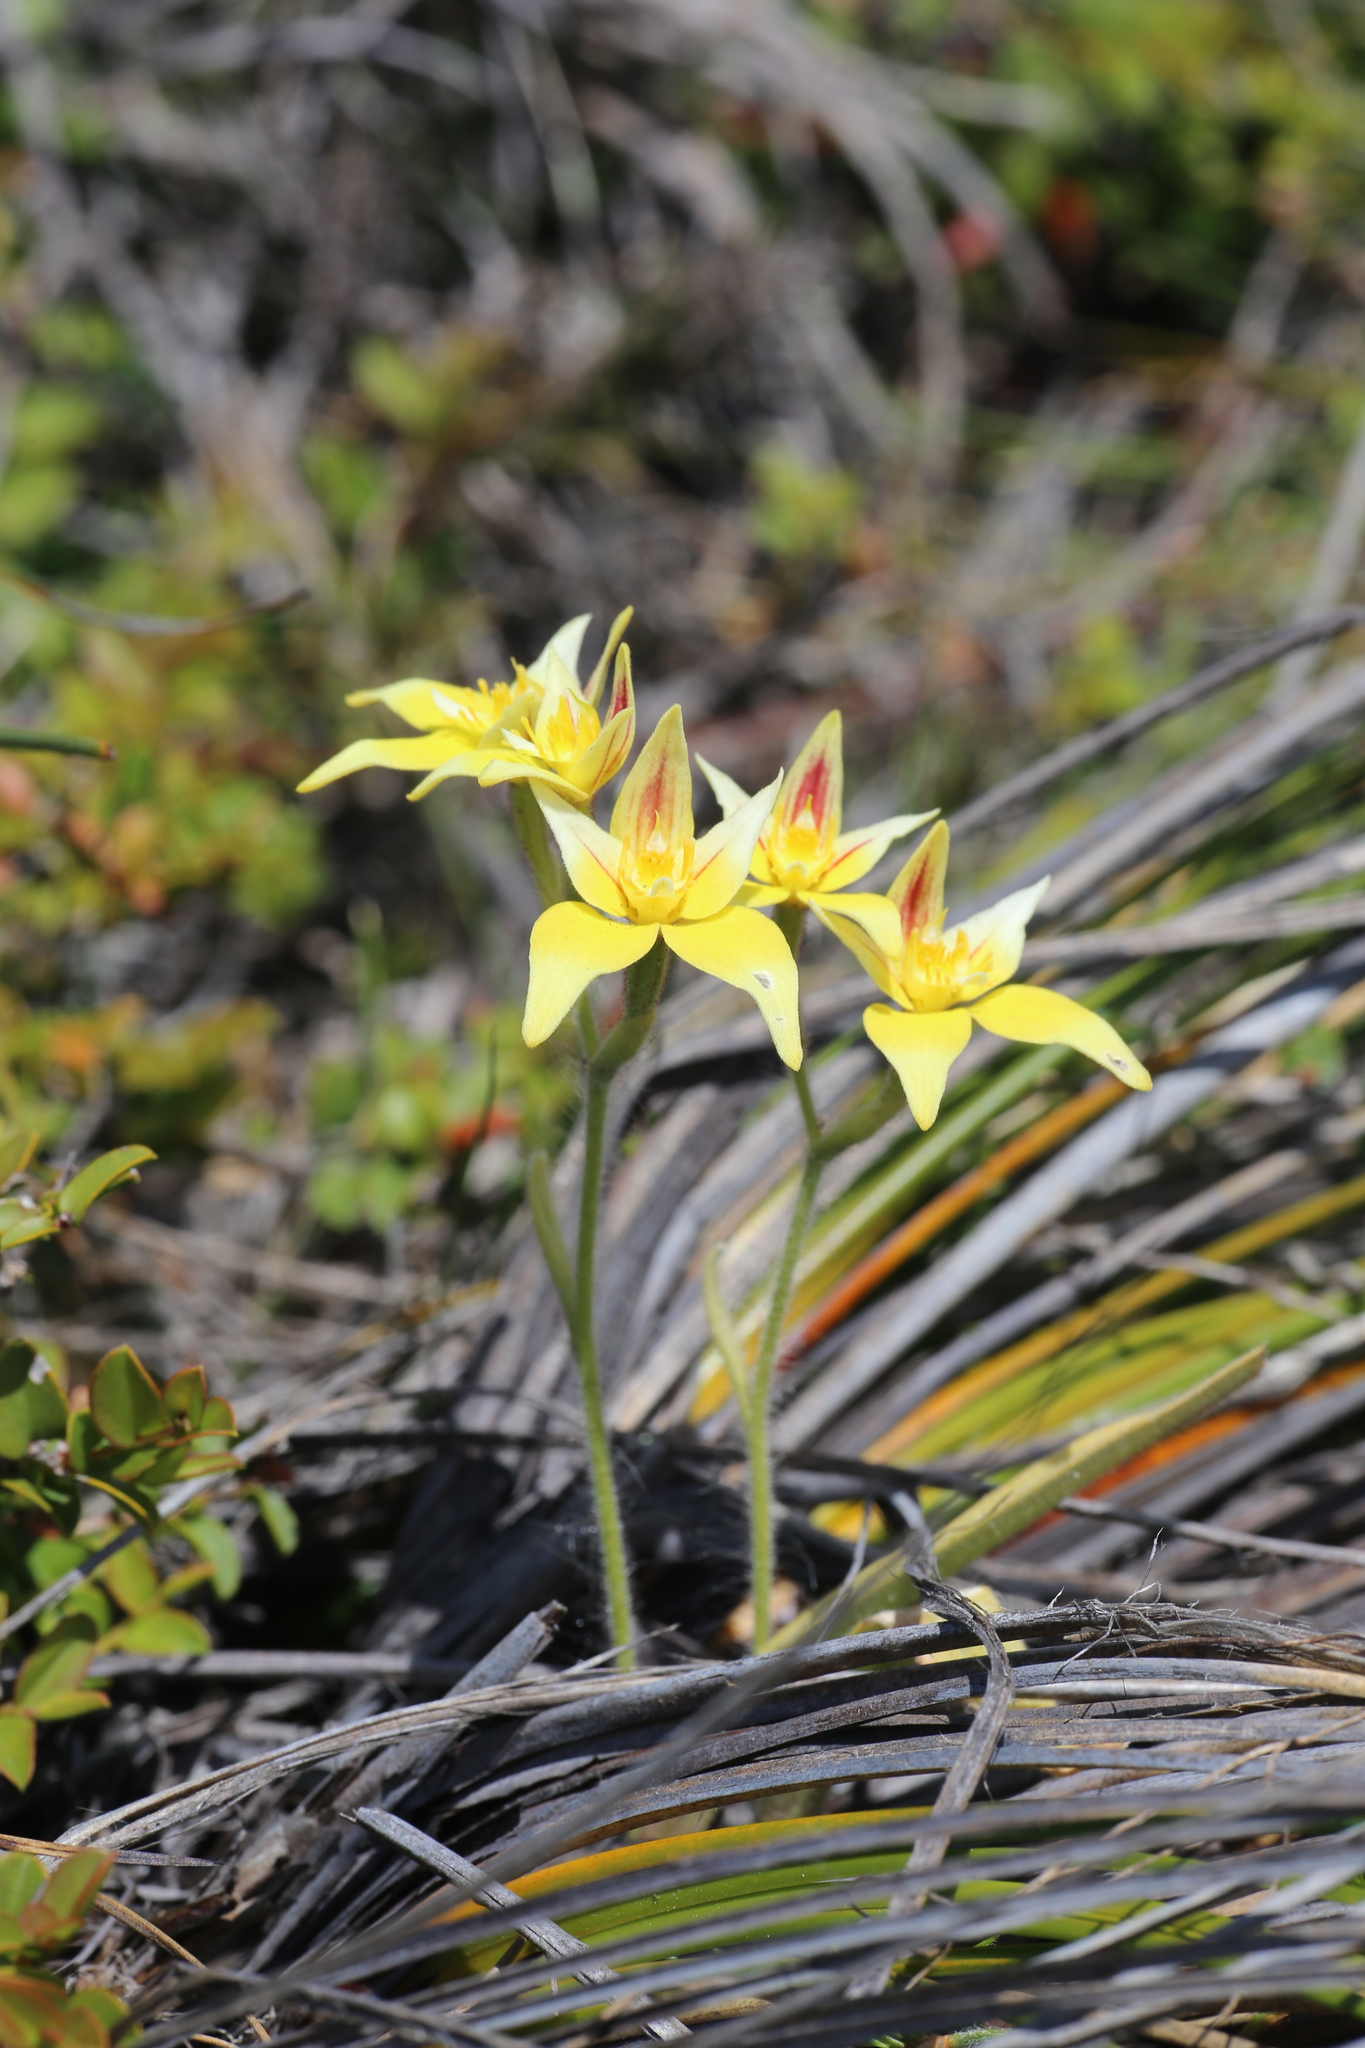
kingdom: Plantae
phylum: Tracheophyta
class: Liliopsida
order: Asparagales
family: Orchidaceae
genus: Caladenia
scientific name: Caladenia flava
